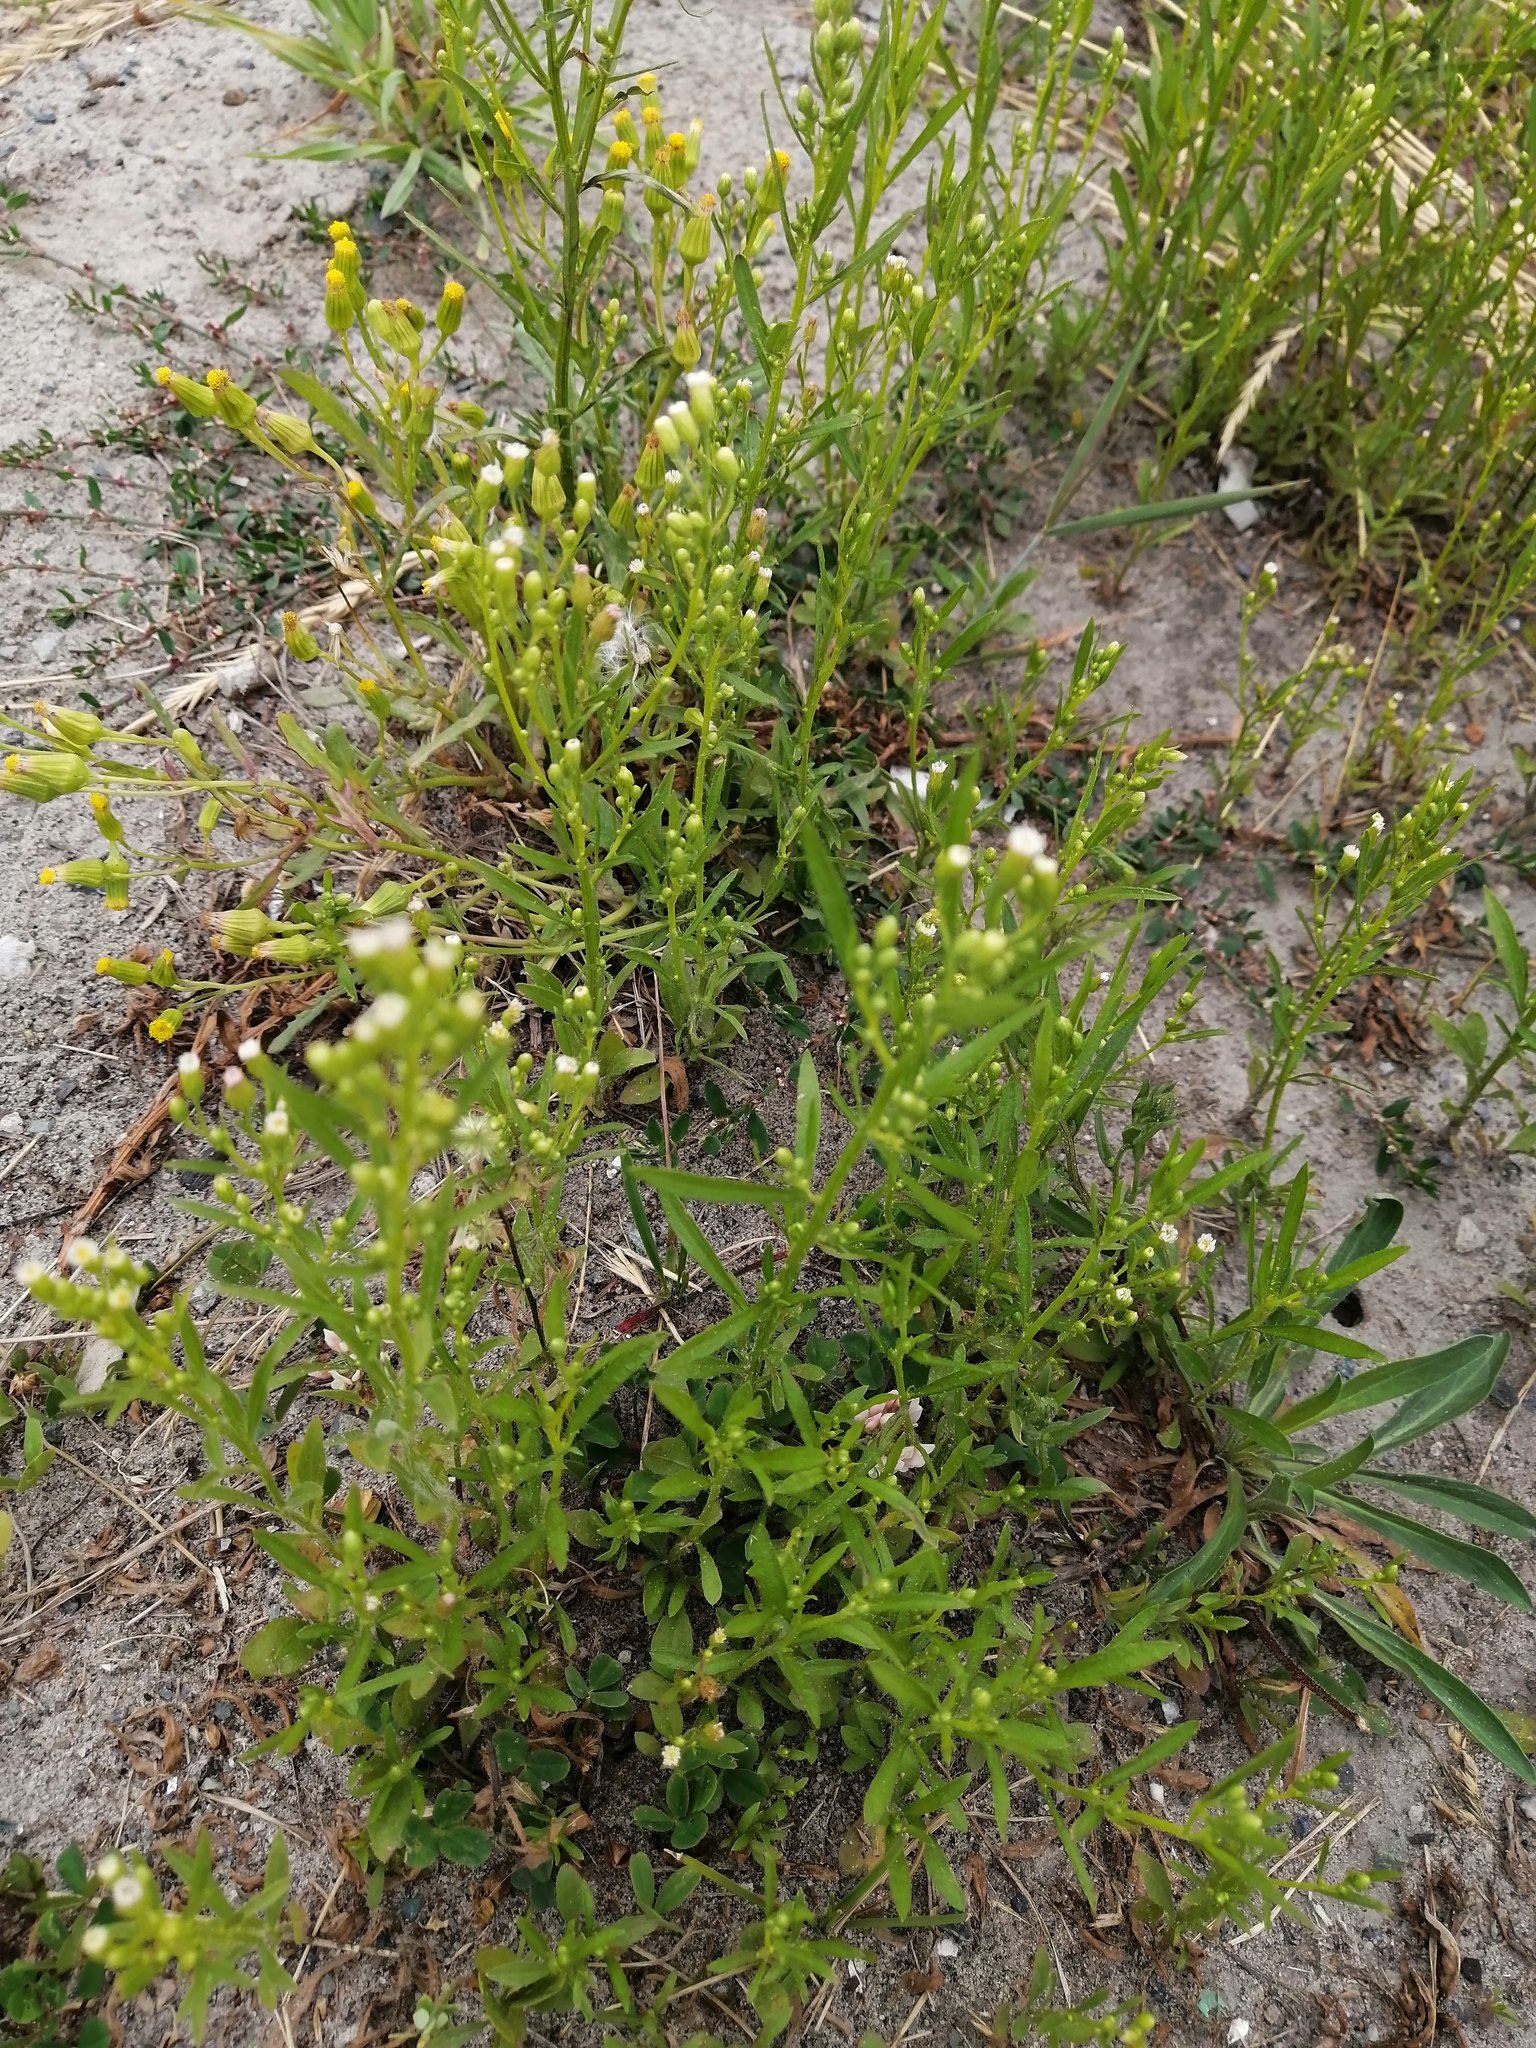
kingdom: Plantae
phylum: Tracheophyta
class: Magnoliopsida
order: Asterales
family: Asteraceae
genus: Erigeron
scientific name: Erigeron canadensis
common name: Canadian fleabane
